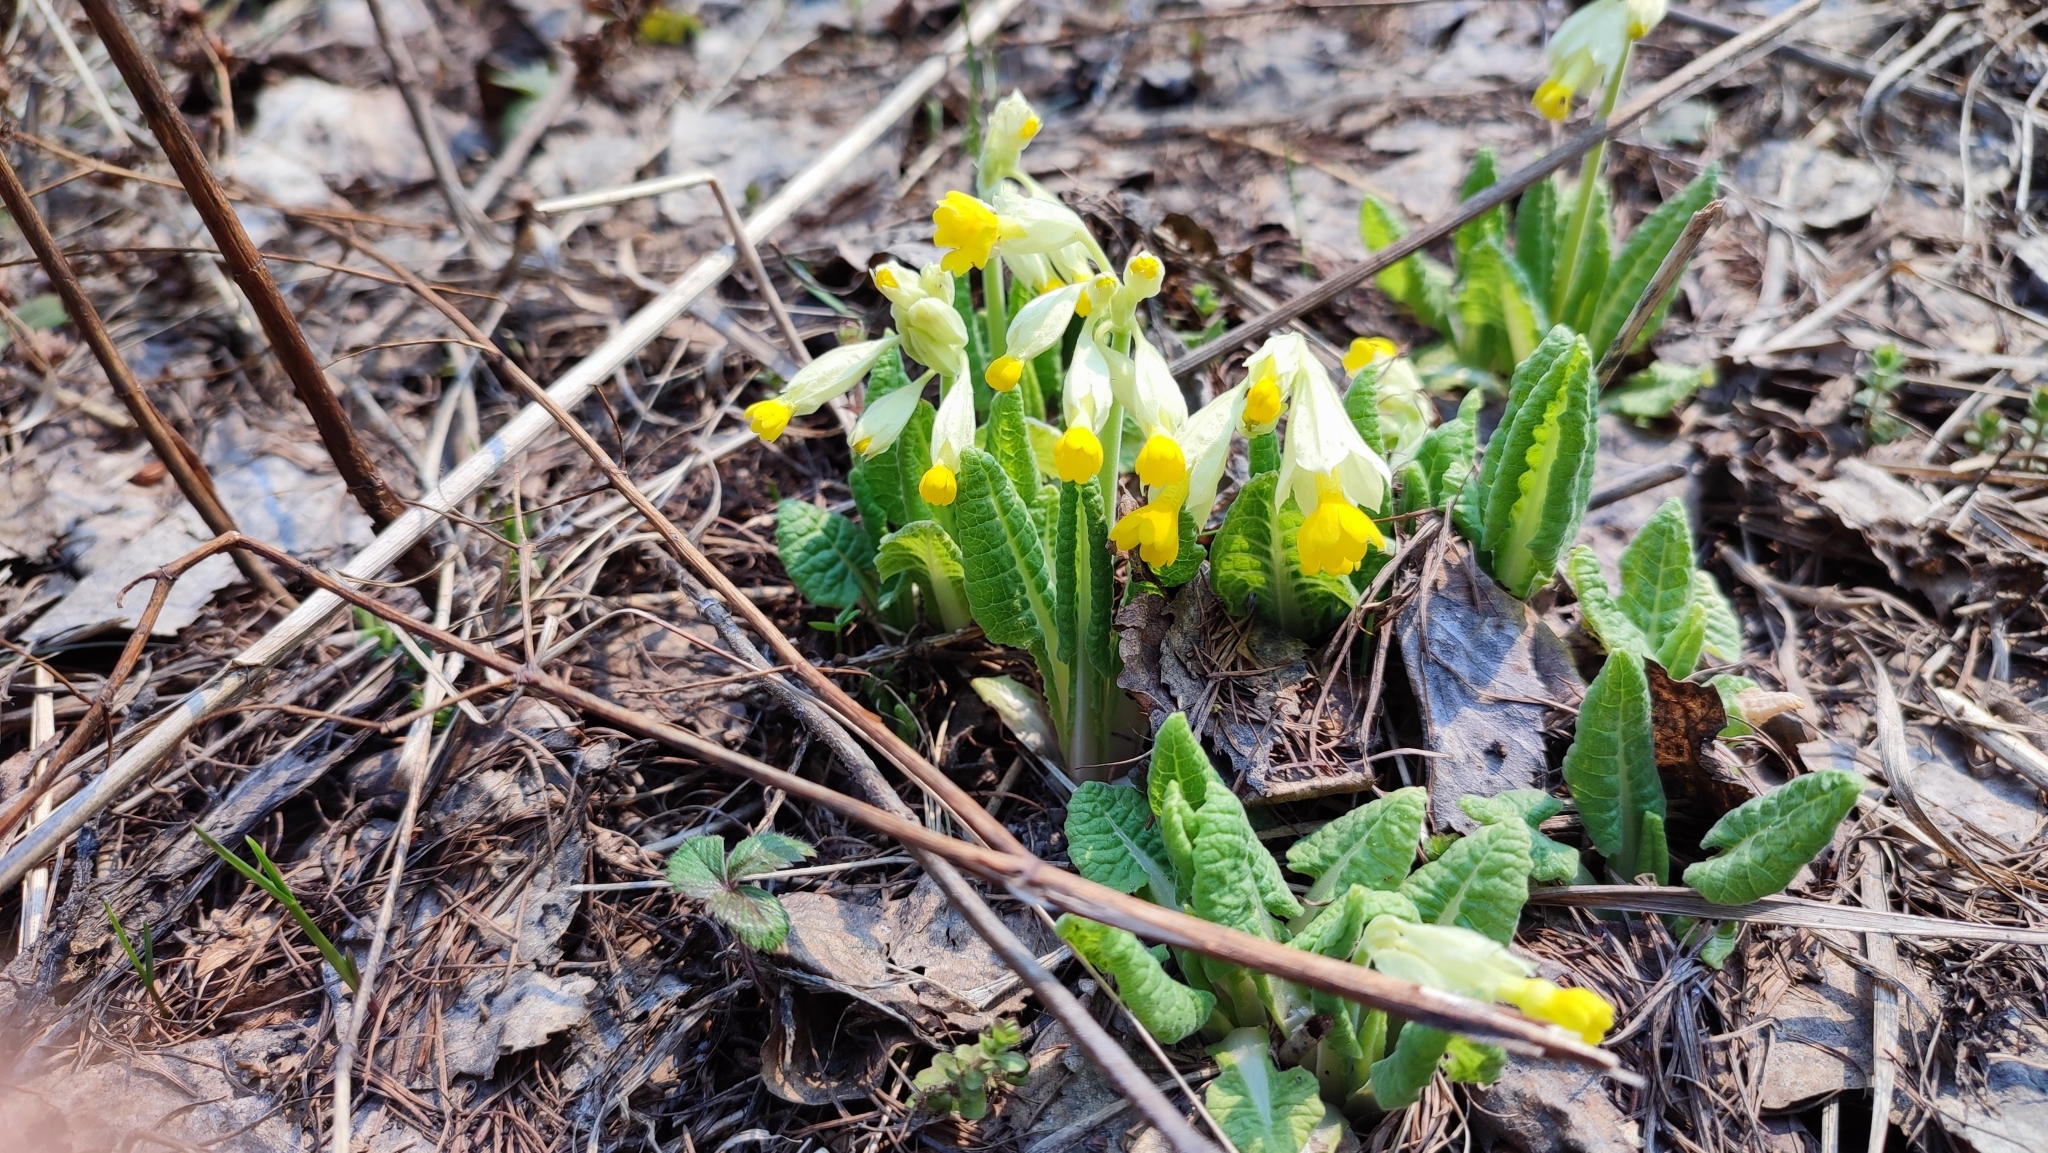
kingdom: Plantae
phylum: Tracheophyta
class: Magnoliopsida
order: Ericales
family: Primulaceae
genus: Primula
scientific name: Primula veris
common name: Cowslip
